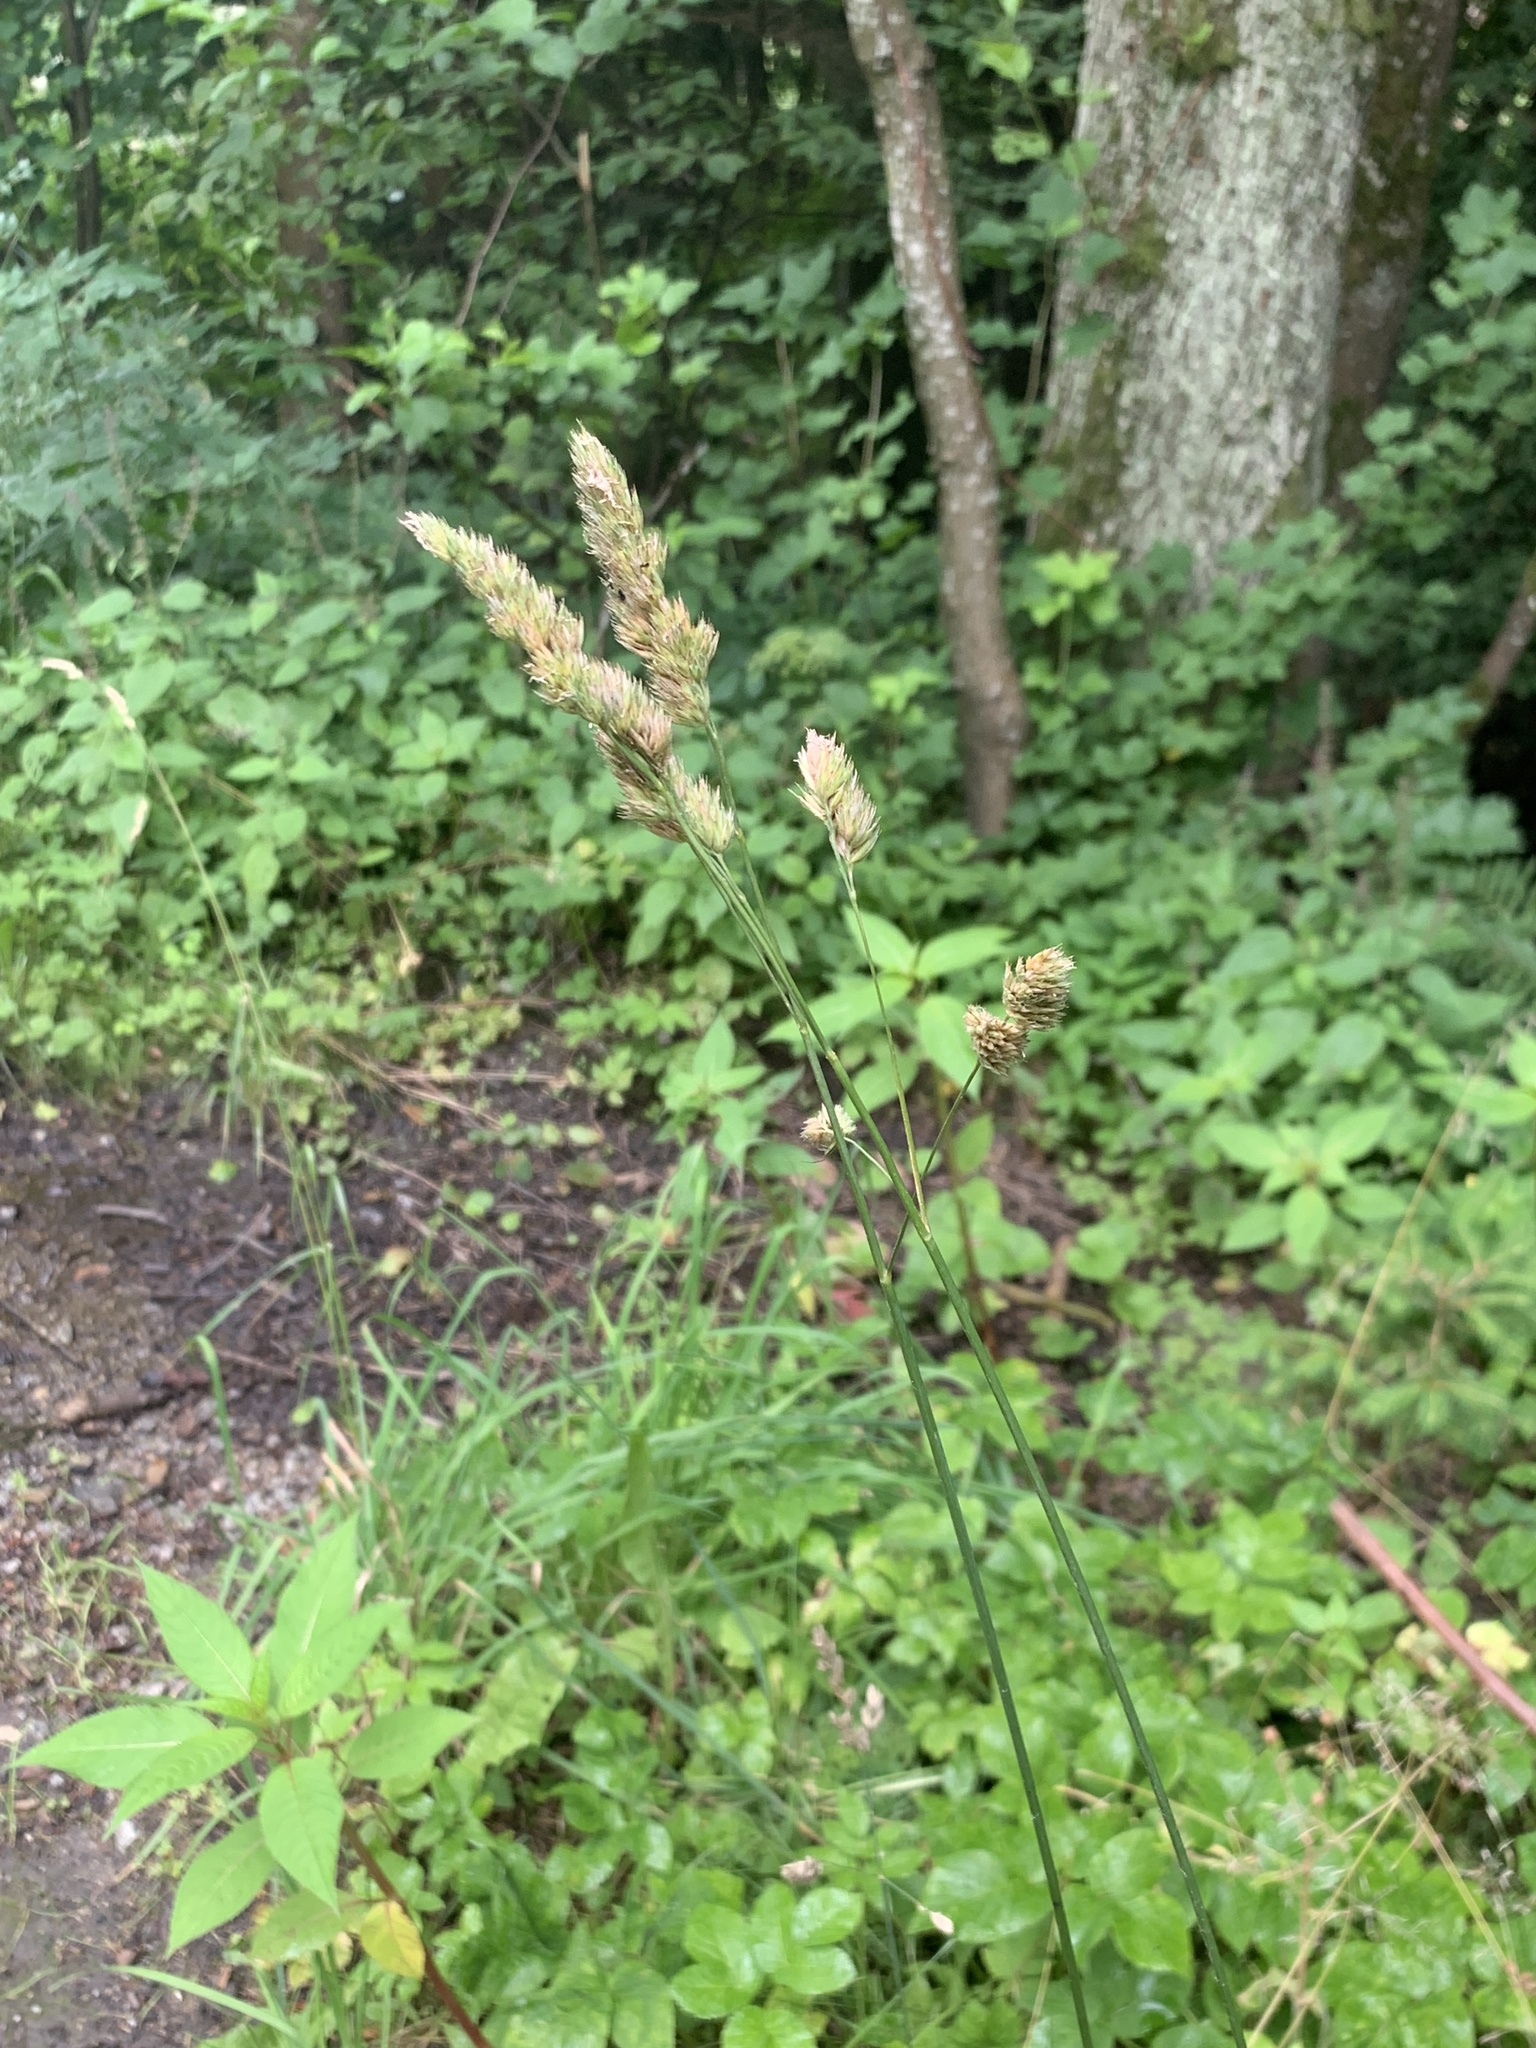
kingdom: Plantae
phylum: Tracheophyta
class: Liliopsida
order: Poales
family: Poaceae
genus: Dactylis
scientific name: Dactylis glomerata
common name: Orchardgrass
